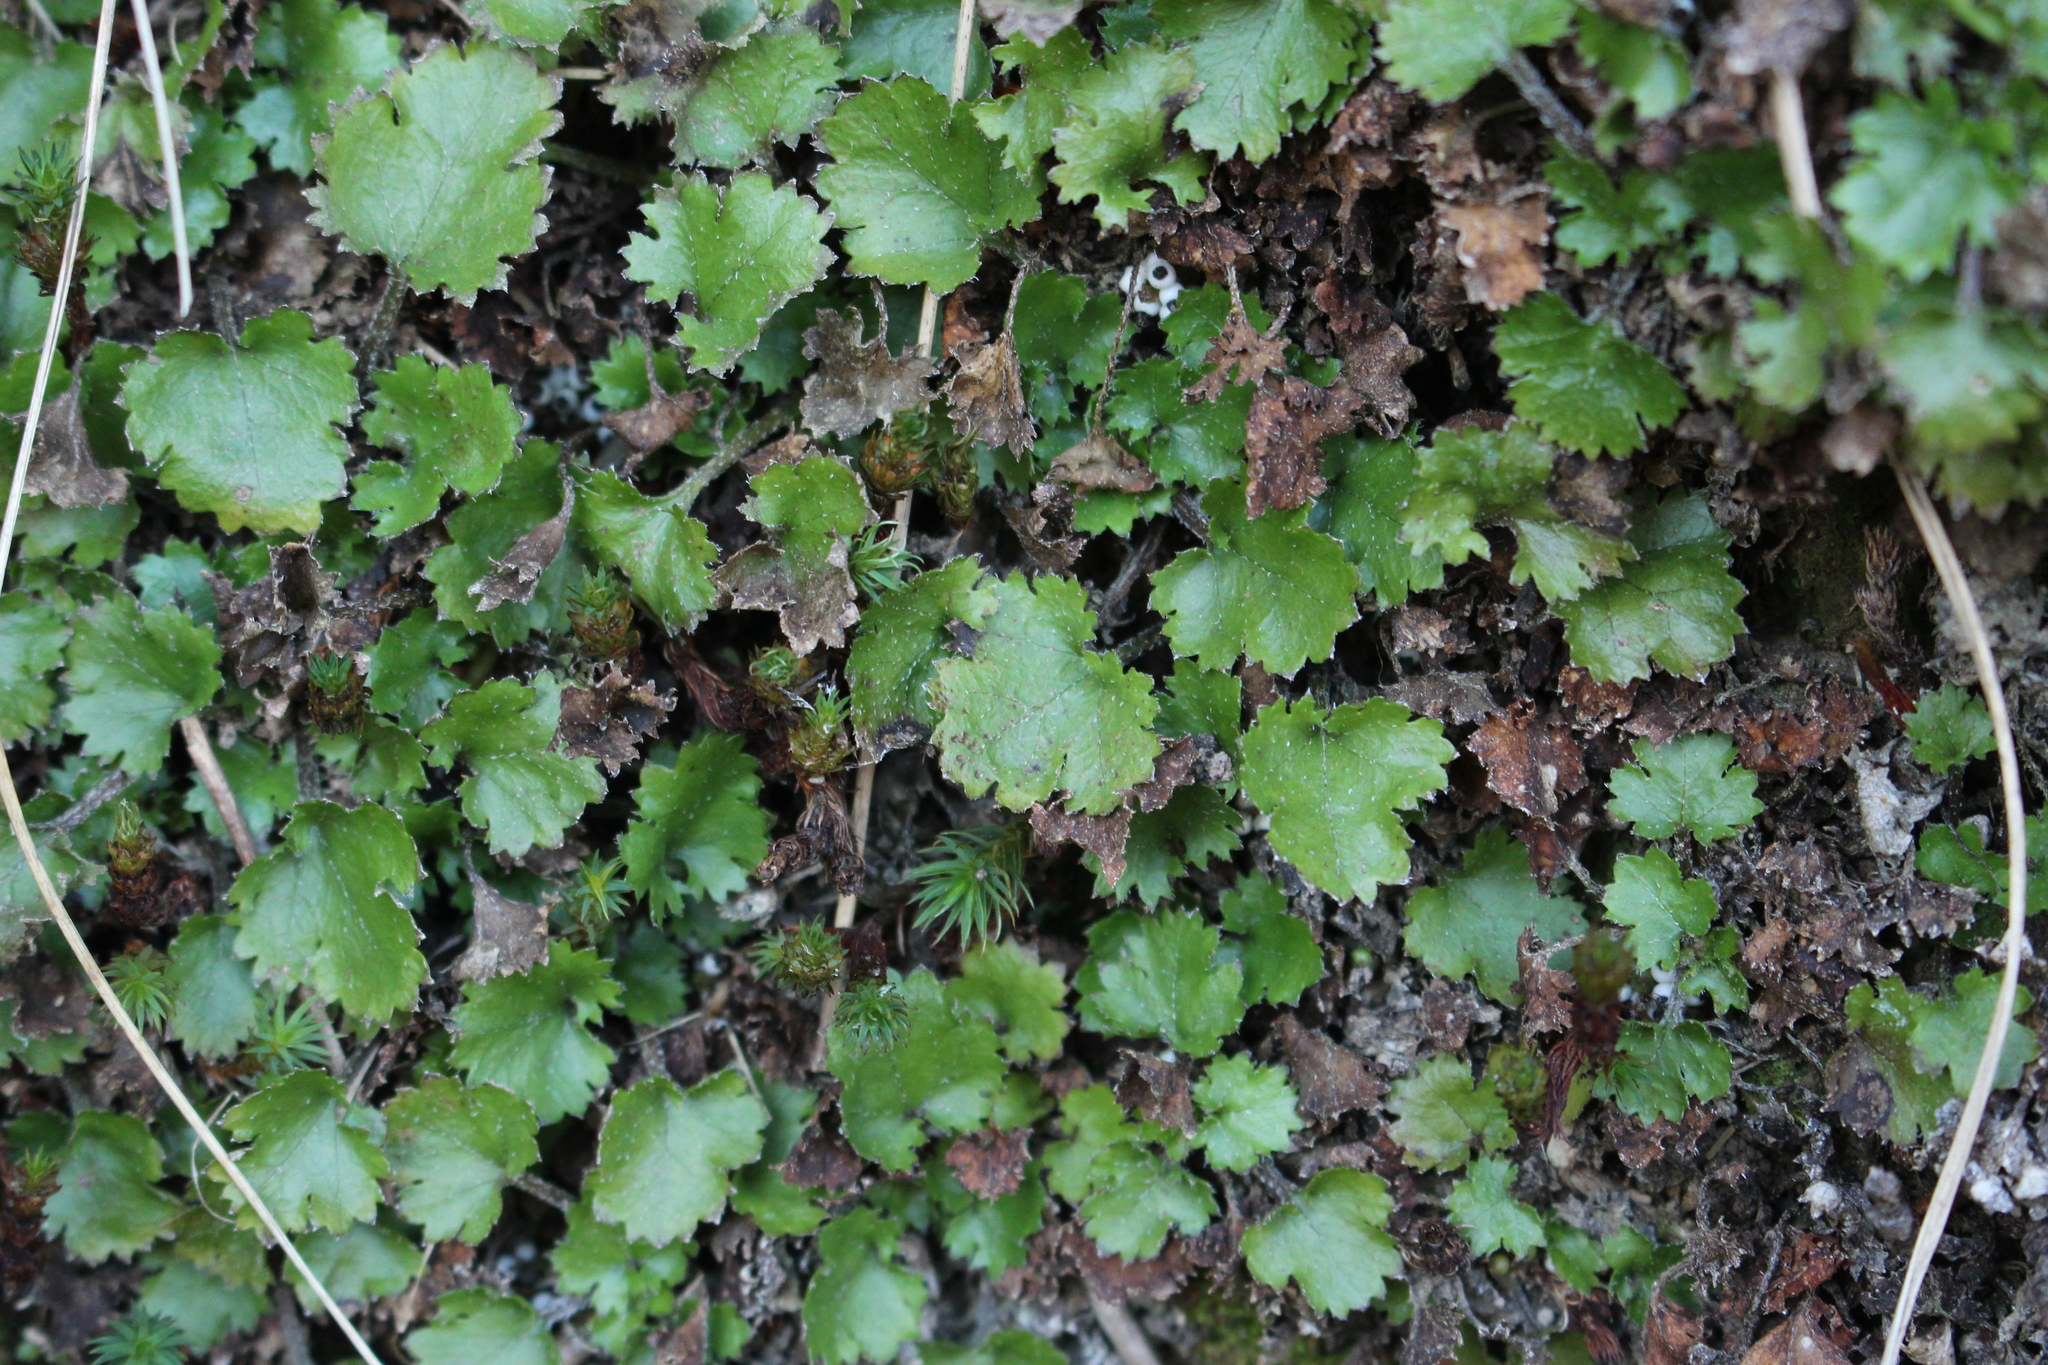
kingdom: Plantae
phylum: Tracheophyta
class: Magnoliopsida
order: Gunnerales
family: Gunneraceae
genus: Gunnera
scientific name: Gunnera monoica
